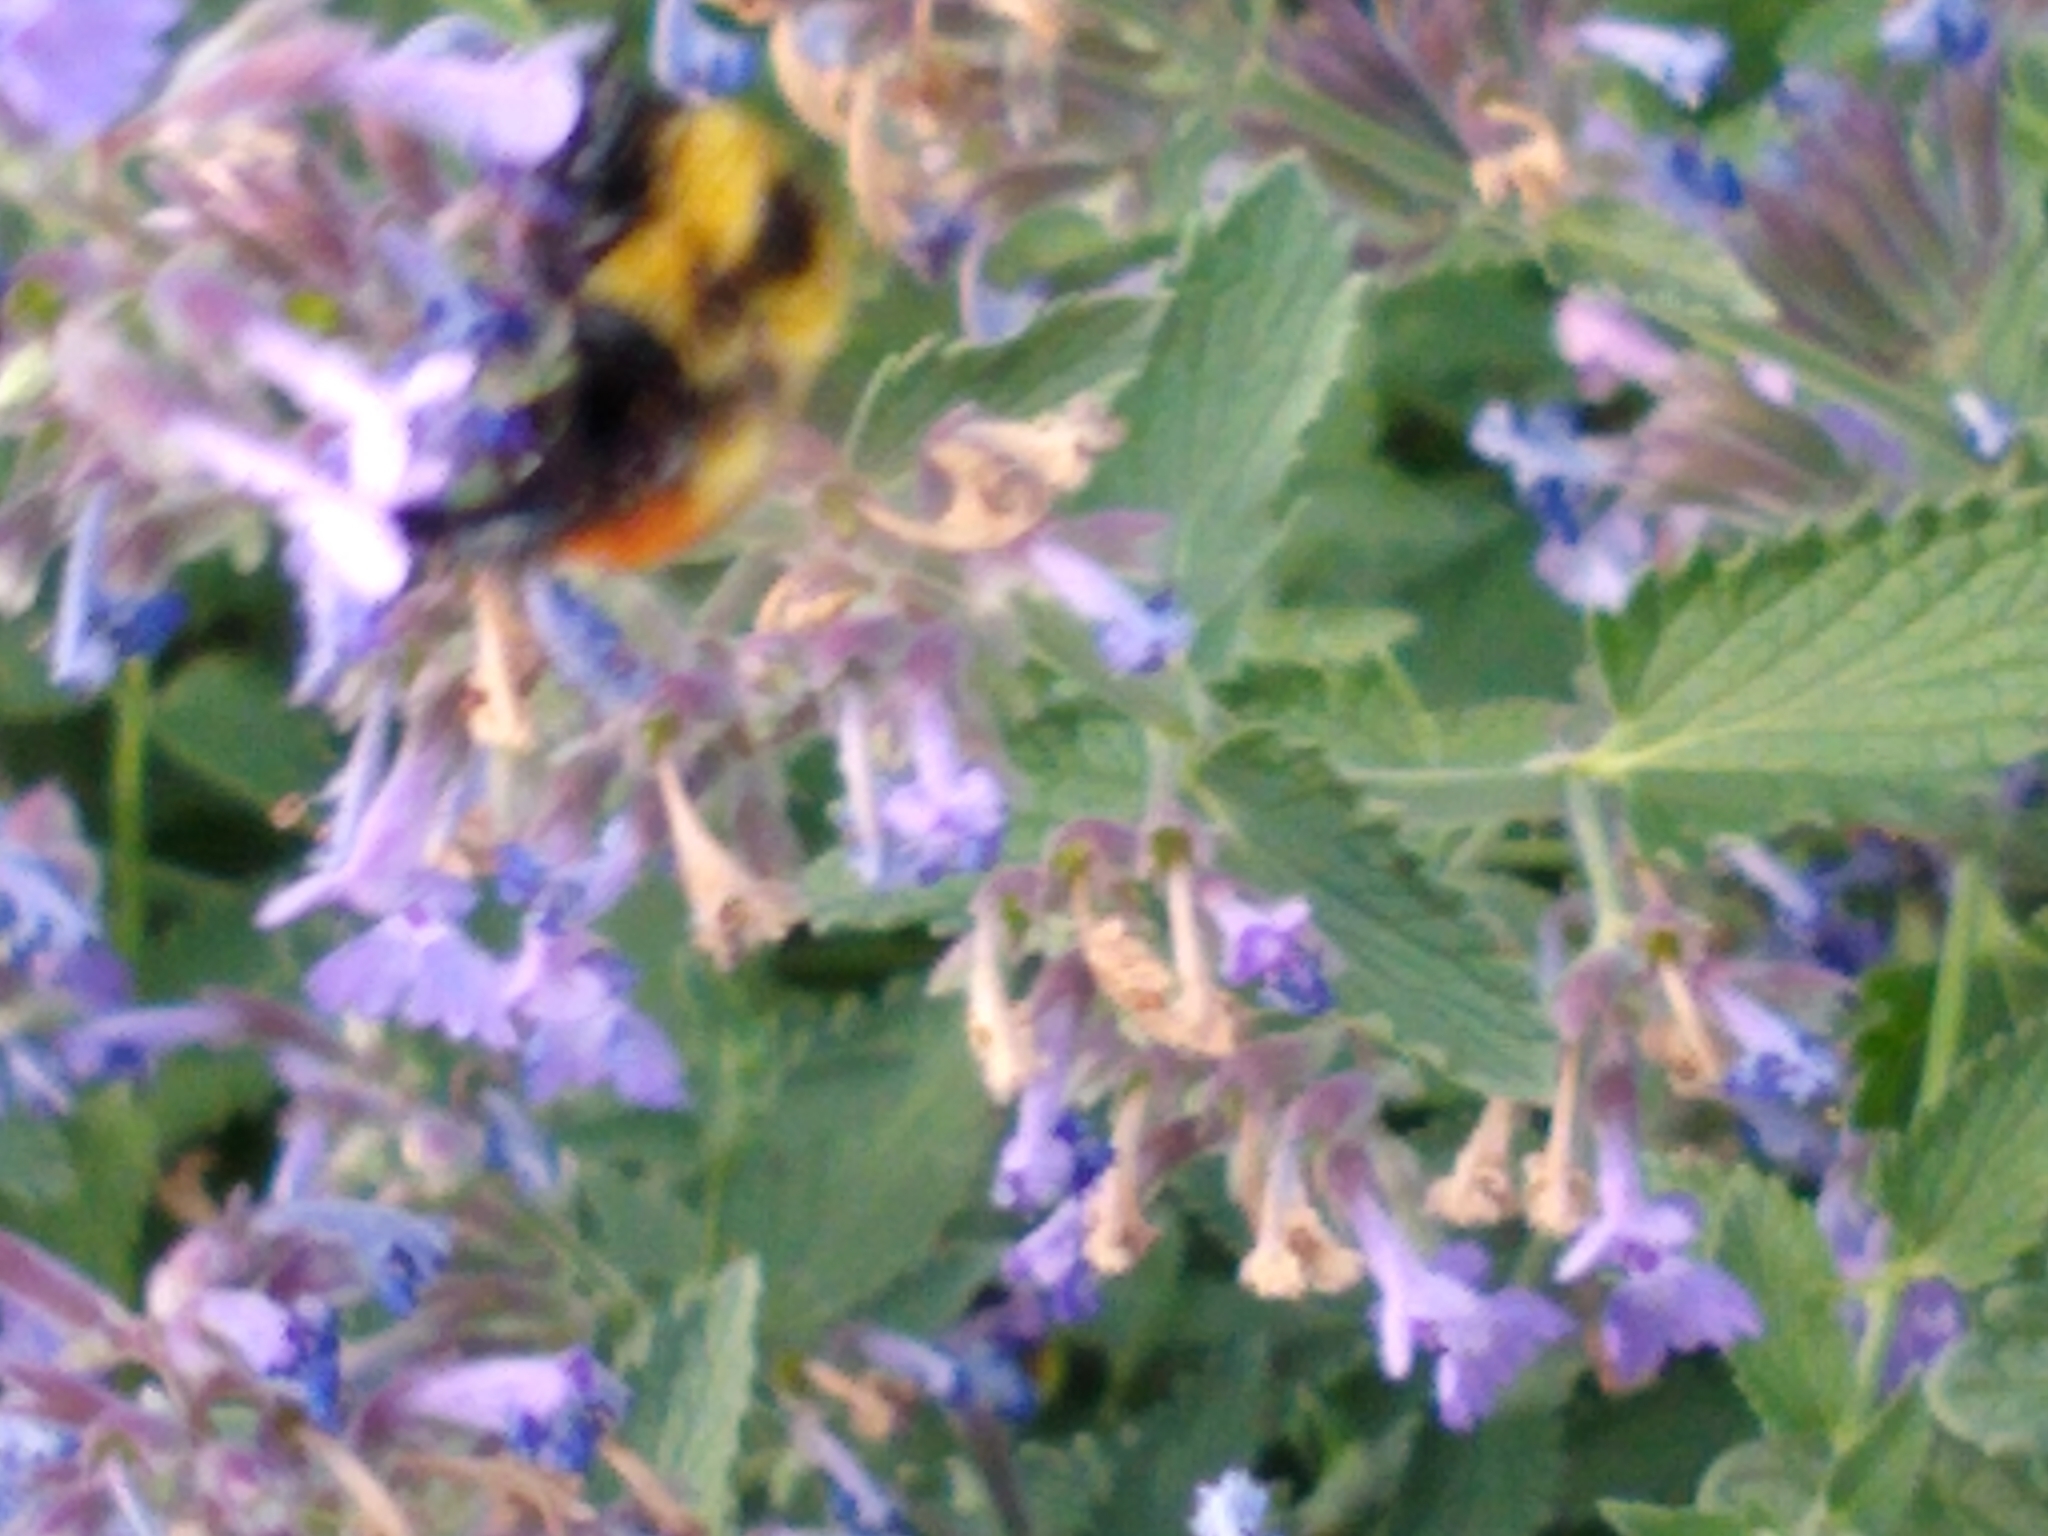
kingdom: Animalia
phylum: Arthropoda
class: Insecta
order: Hymenoptera
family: Apidae
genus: Bombus
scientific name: Bombus rufocinctus
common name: Red-belted bumble bee
